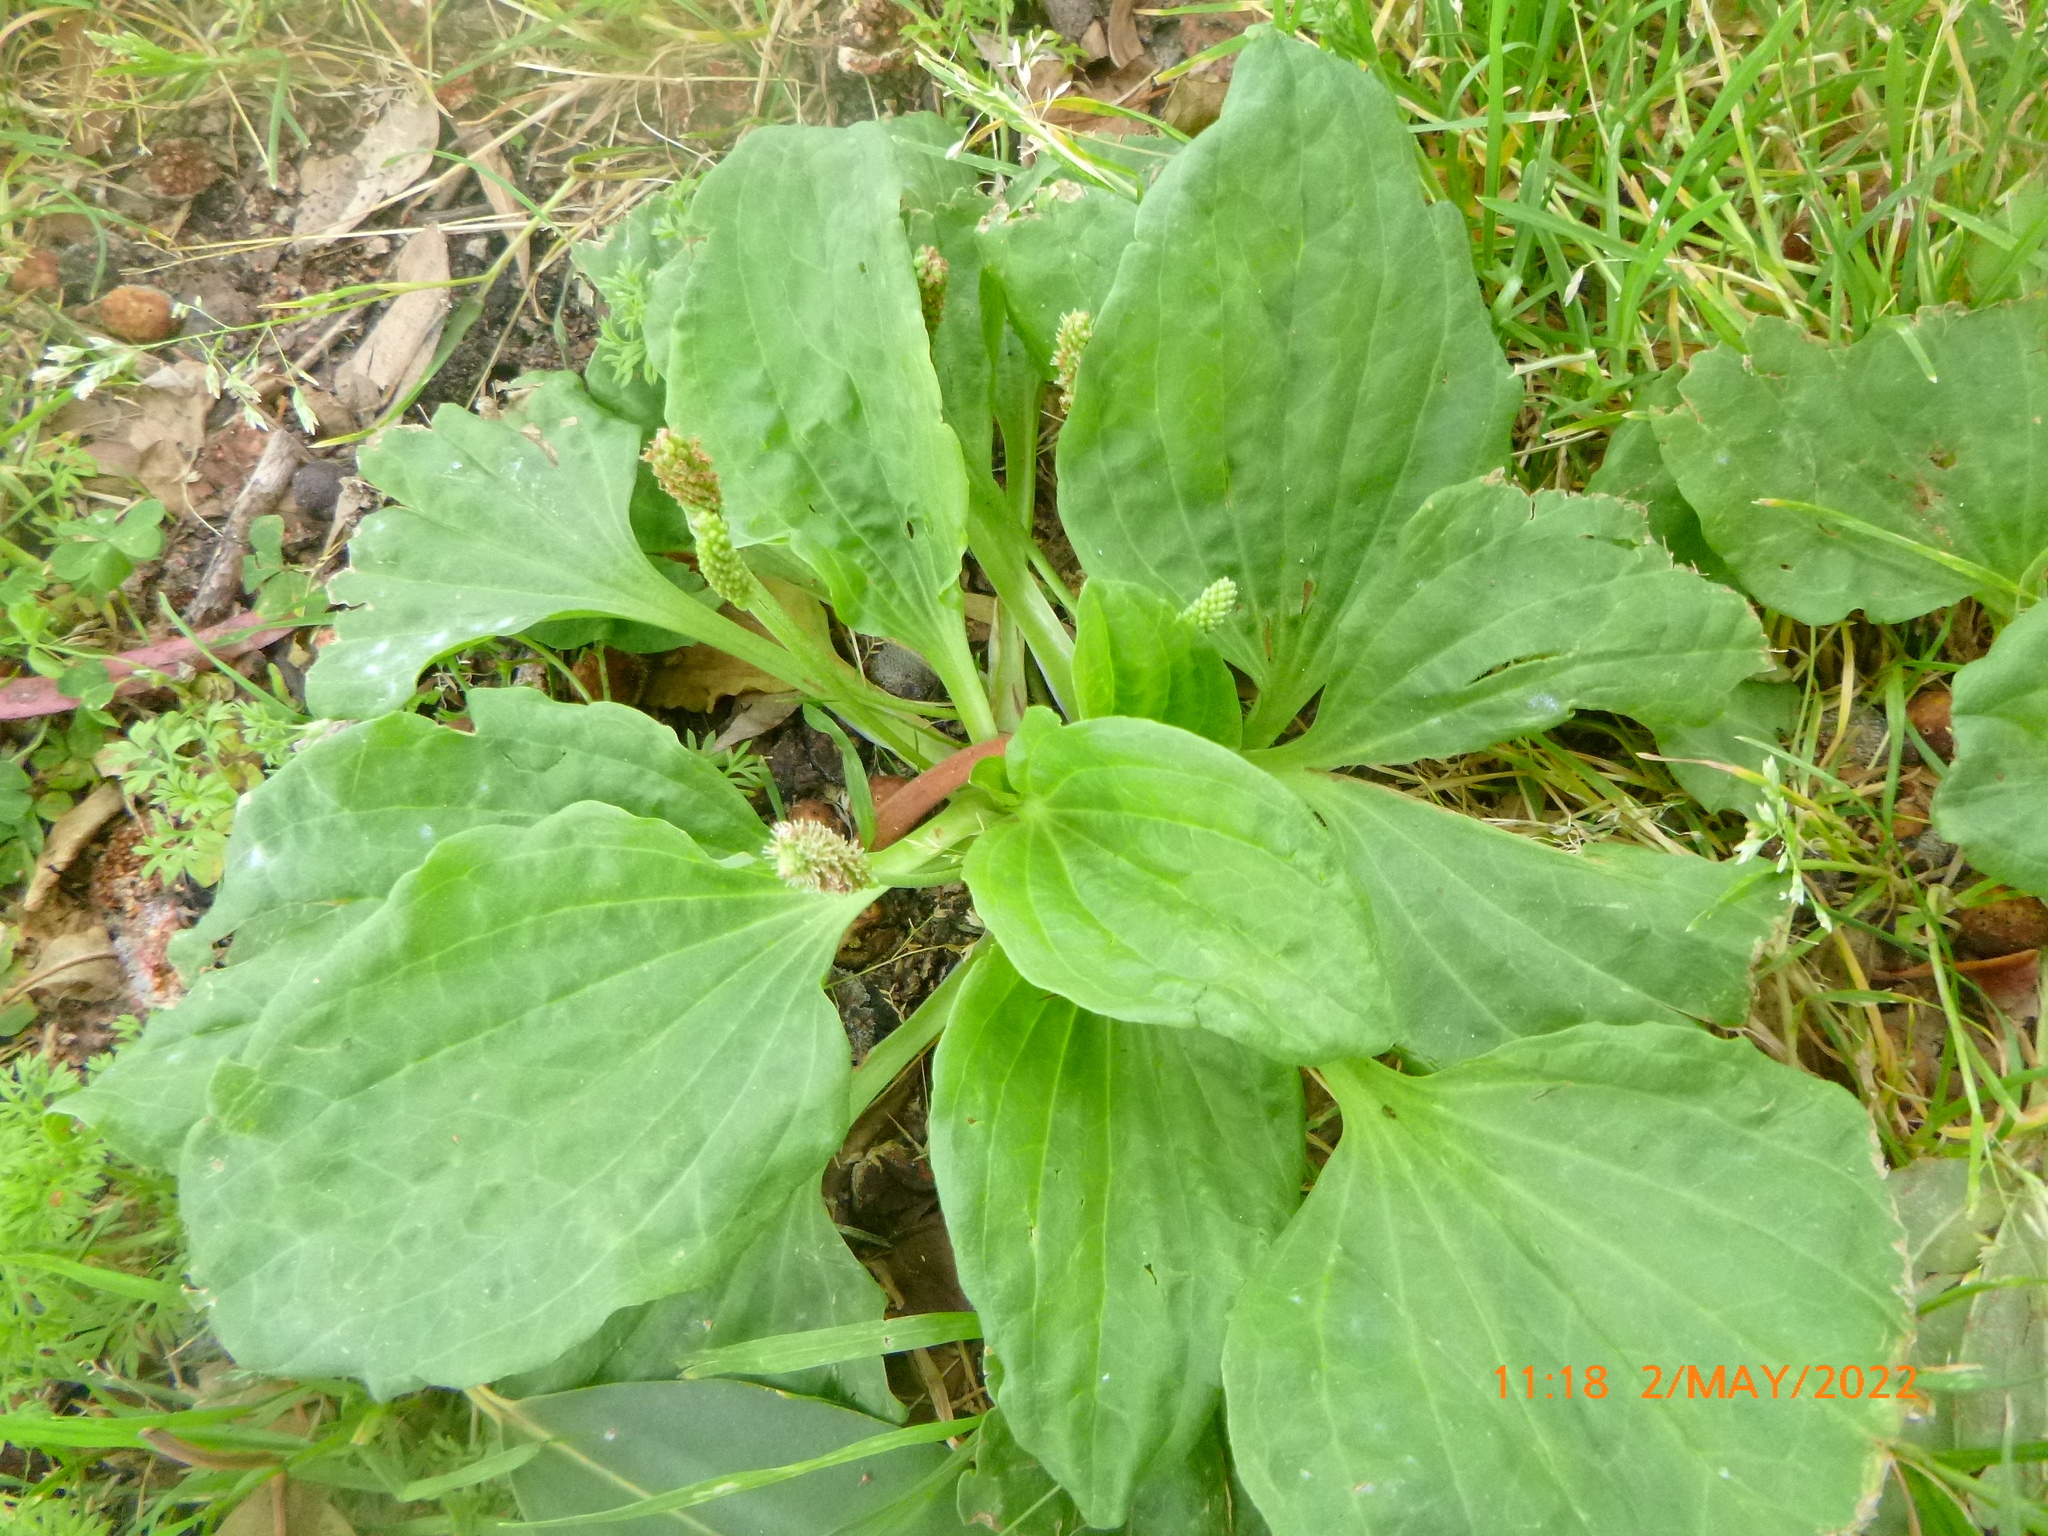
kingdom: Plantae
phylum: Tracheophyta
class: Magnoliopsida
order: Lamiales
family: Plantaginaceae
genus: Plantago
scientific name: Plantago major
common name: Common plantain
